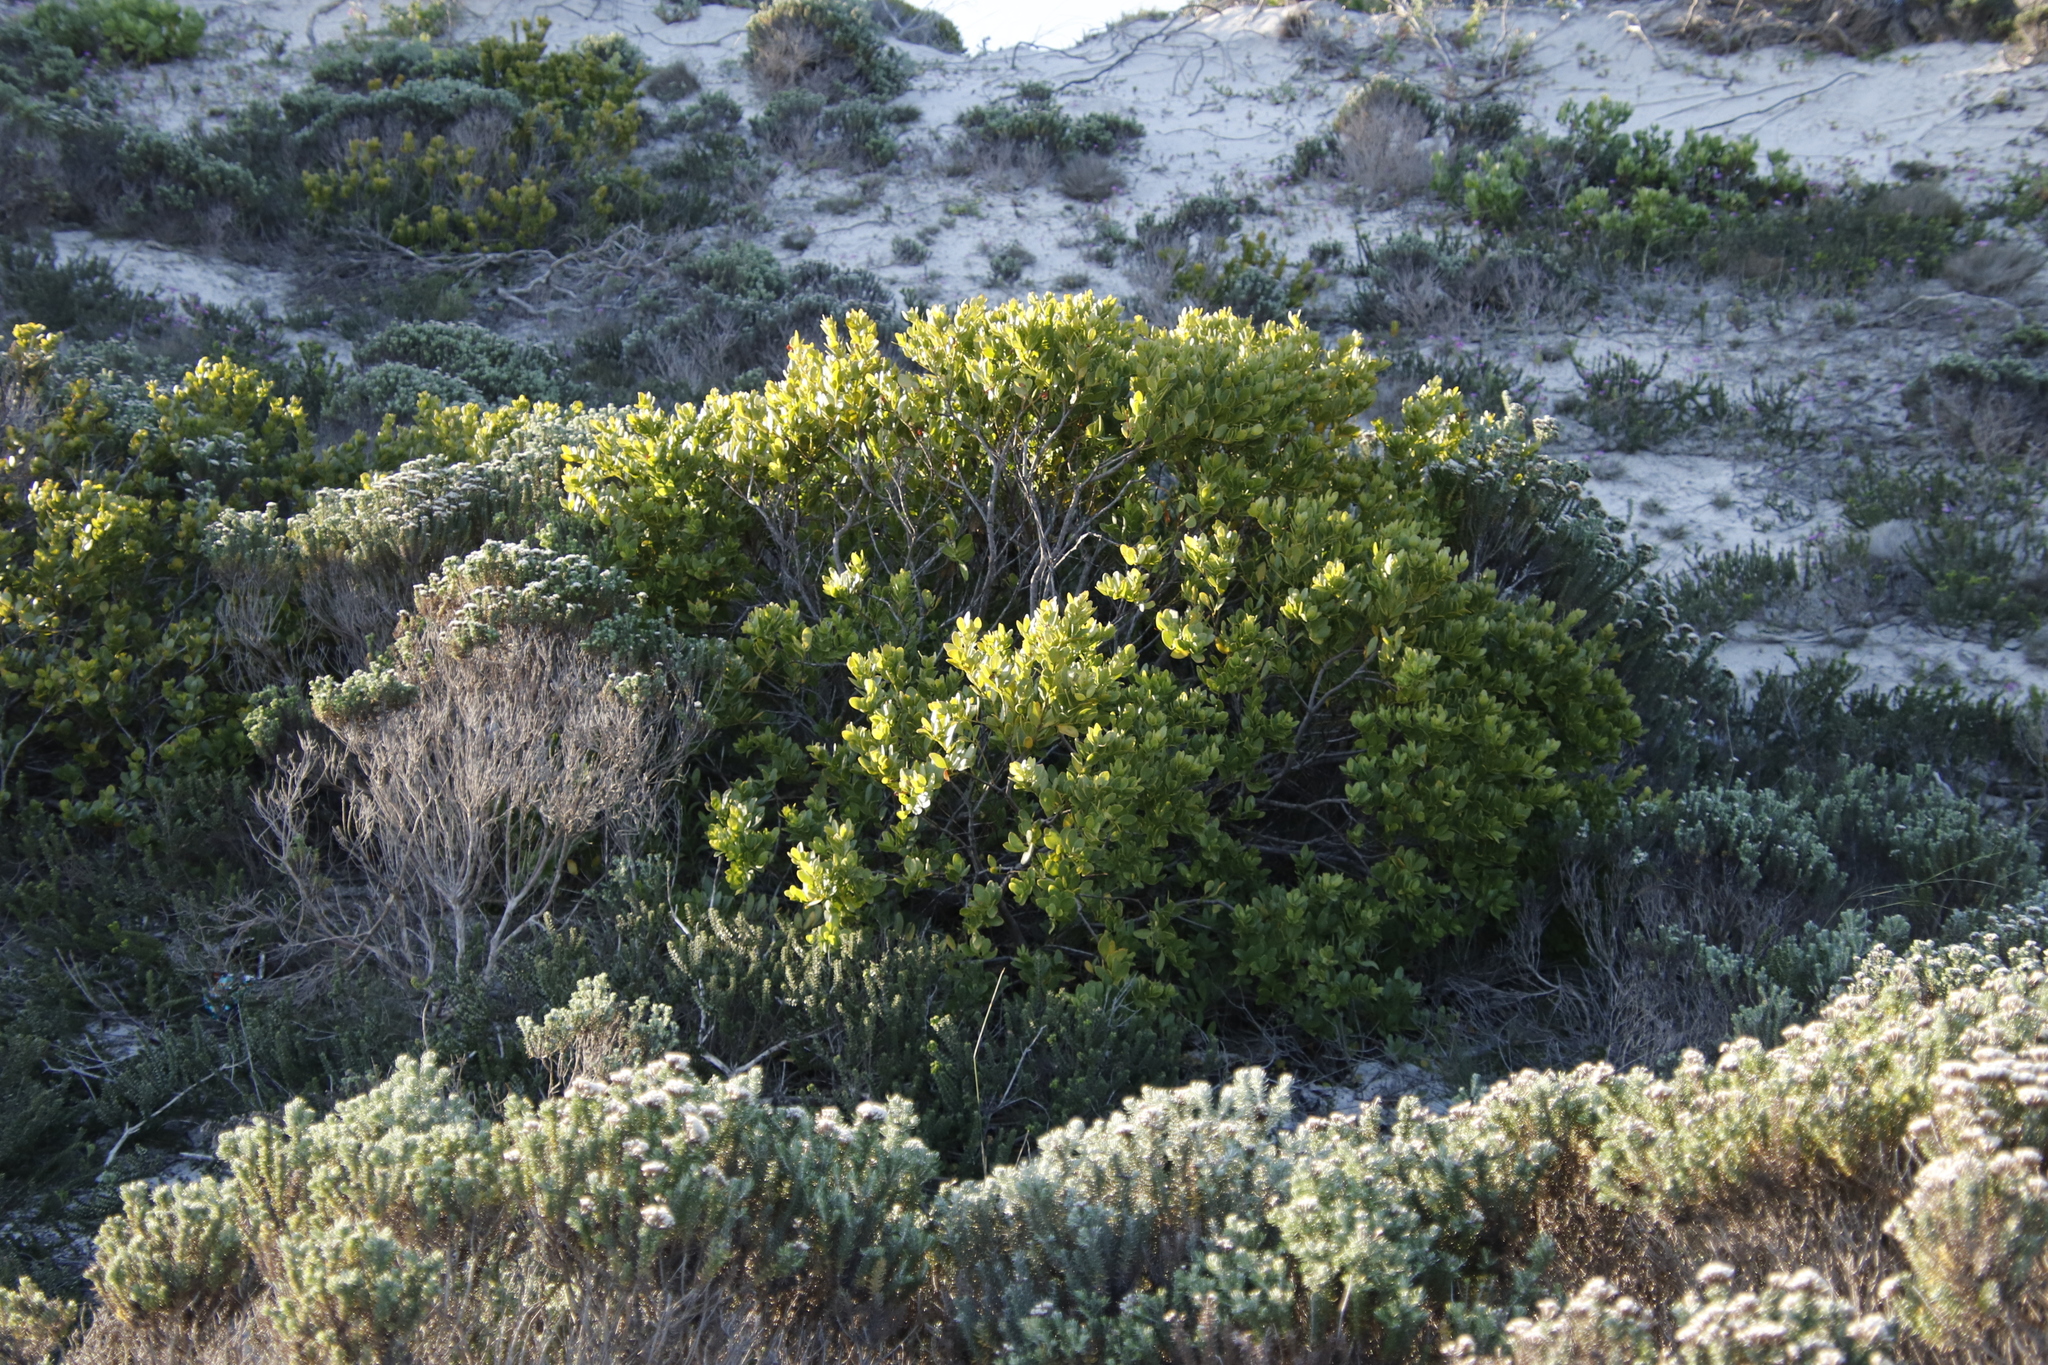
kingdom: Plantae
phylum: Tracheophyta
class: Magnoliopsida
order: Santalales
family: Santalaceae
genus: Osyris
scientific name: Osyris compressa
